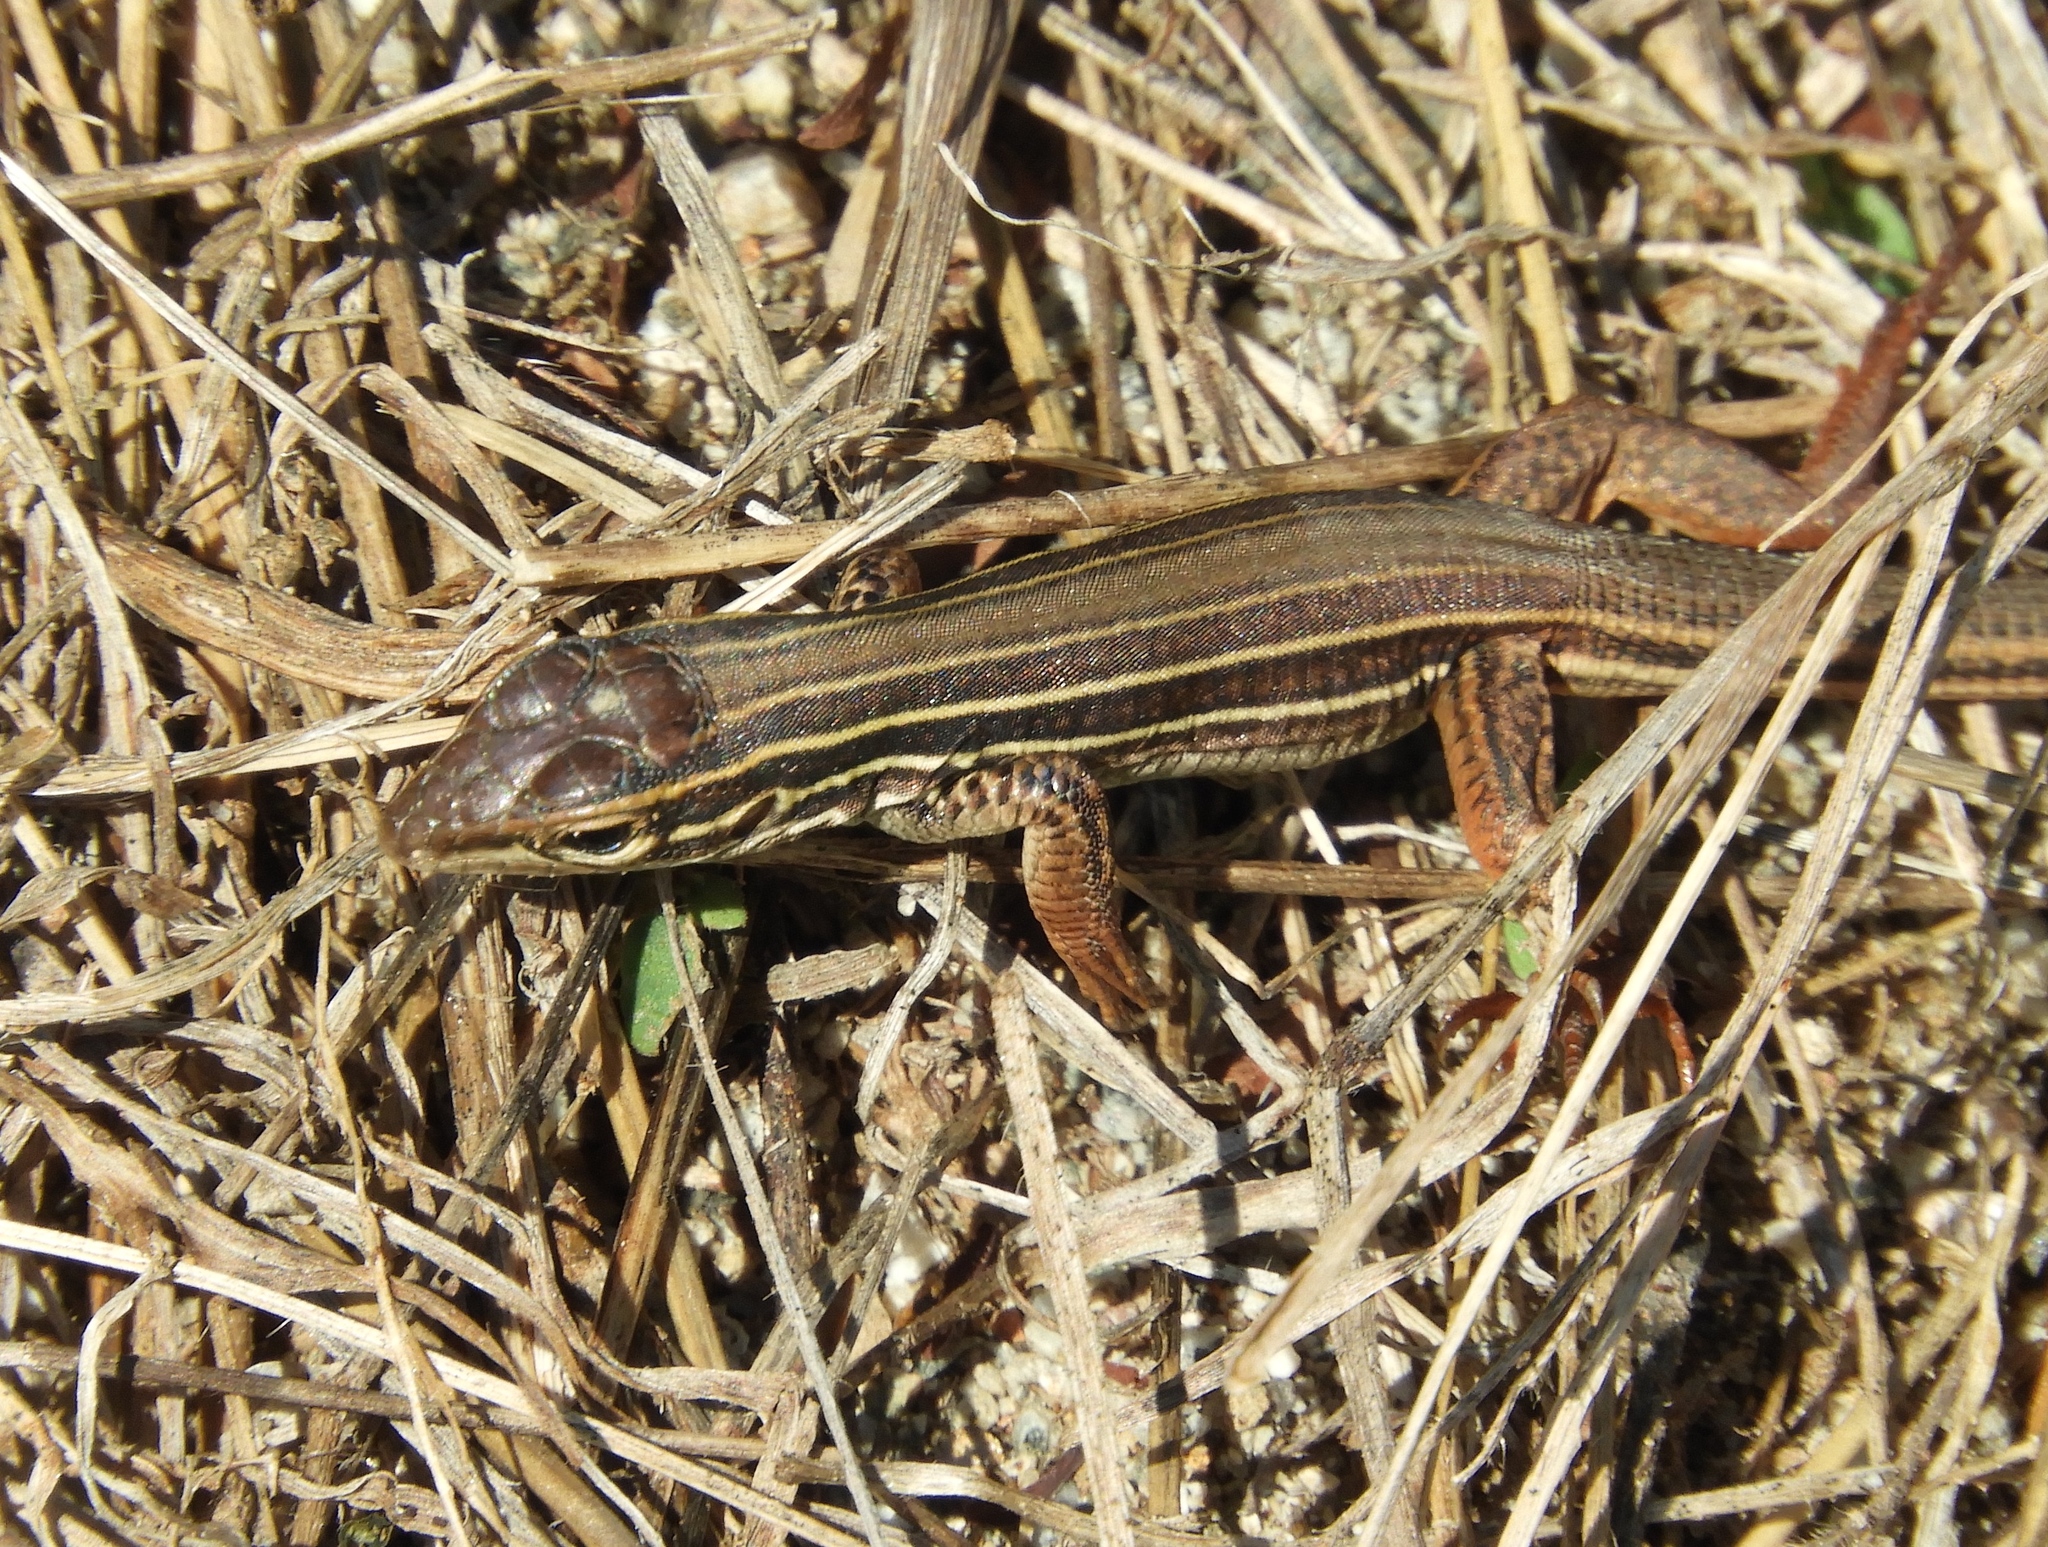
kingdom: Animalia
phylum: Chordata
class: Squamata
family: Teiidae
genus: Aspidoscelis
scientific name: Aspidoscelis costatus
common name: Western mexico whiptail
